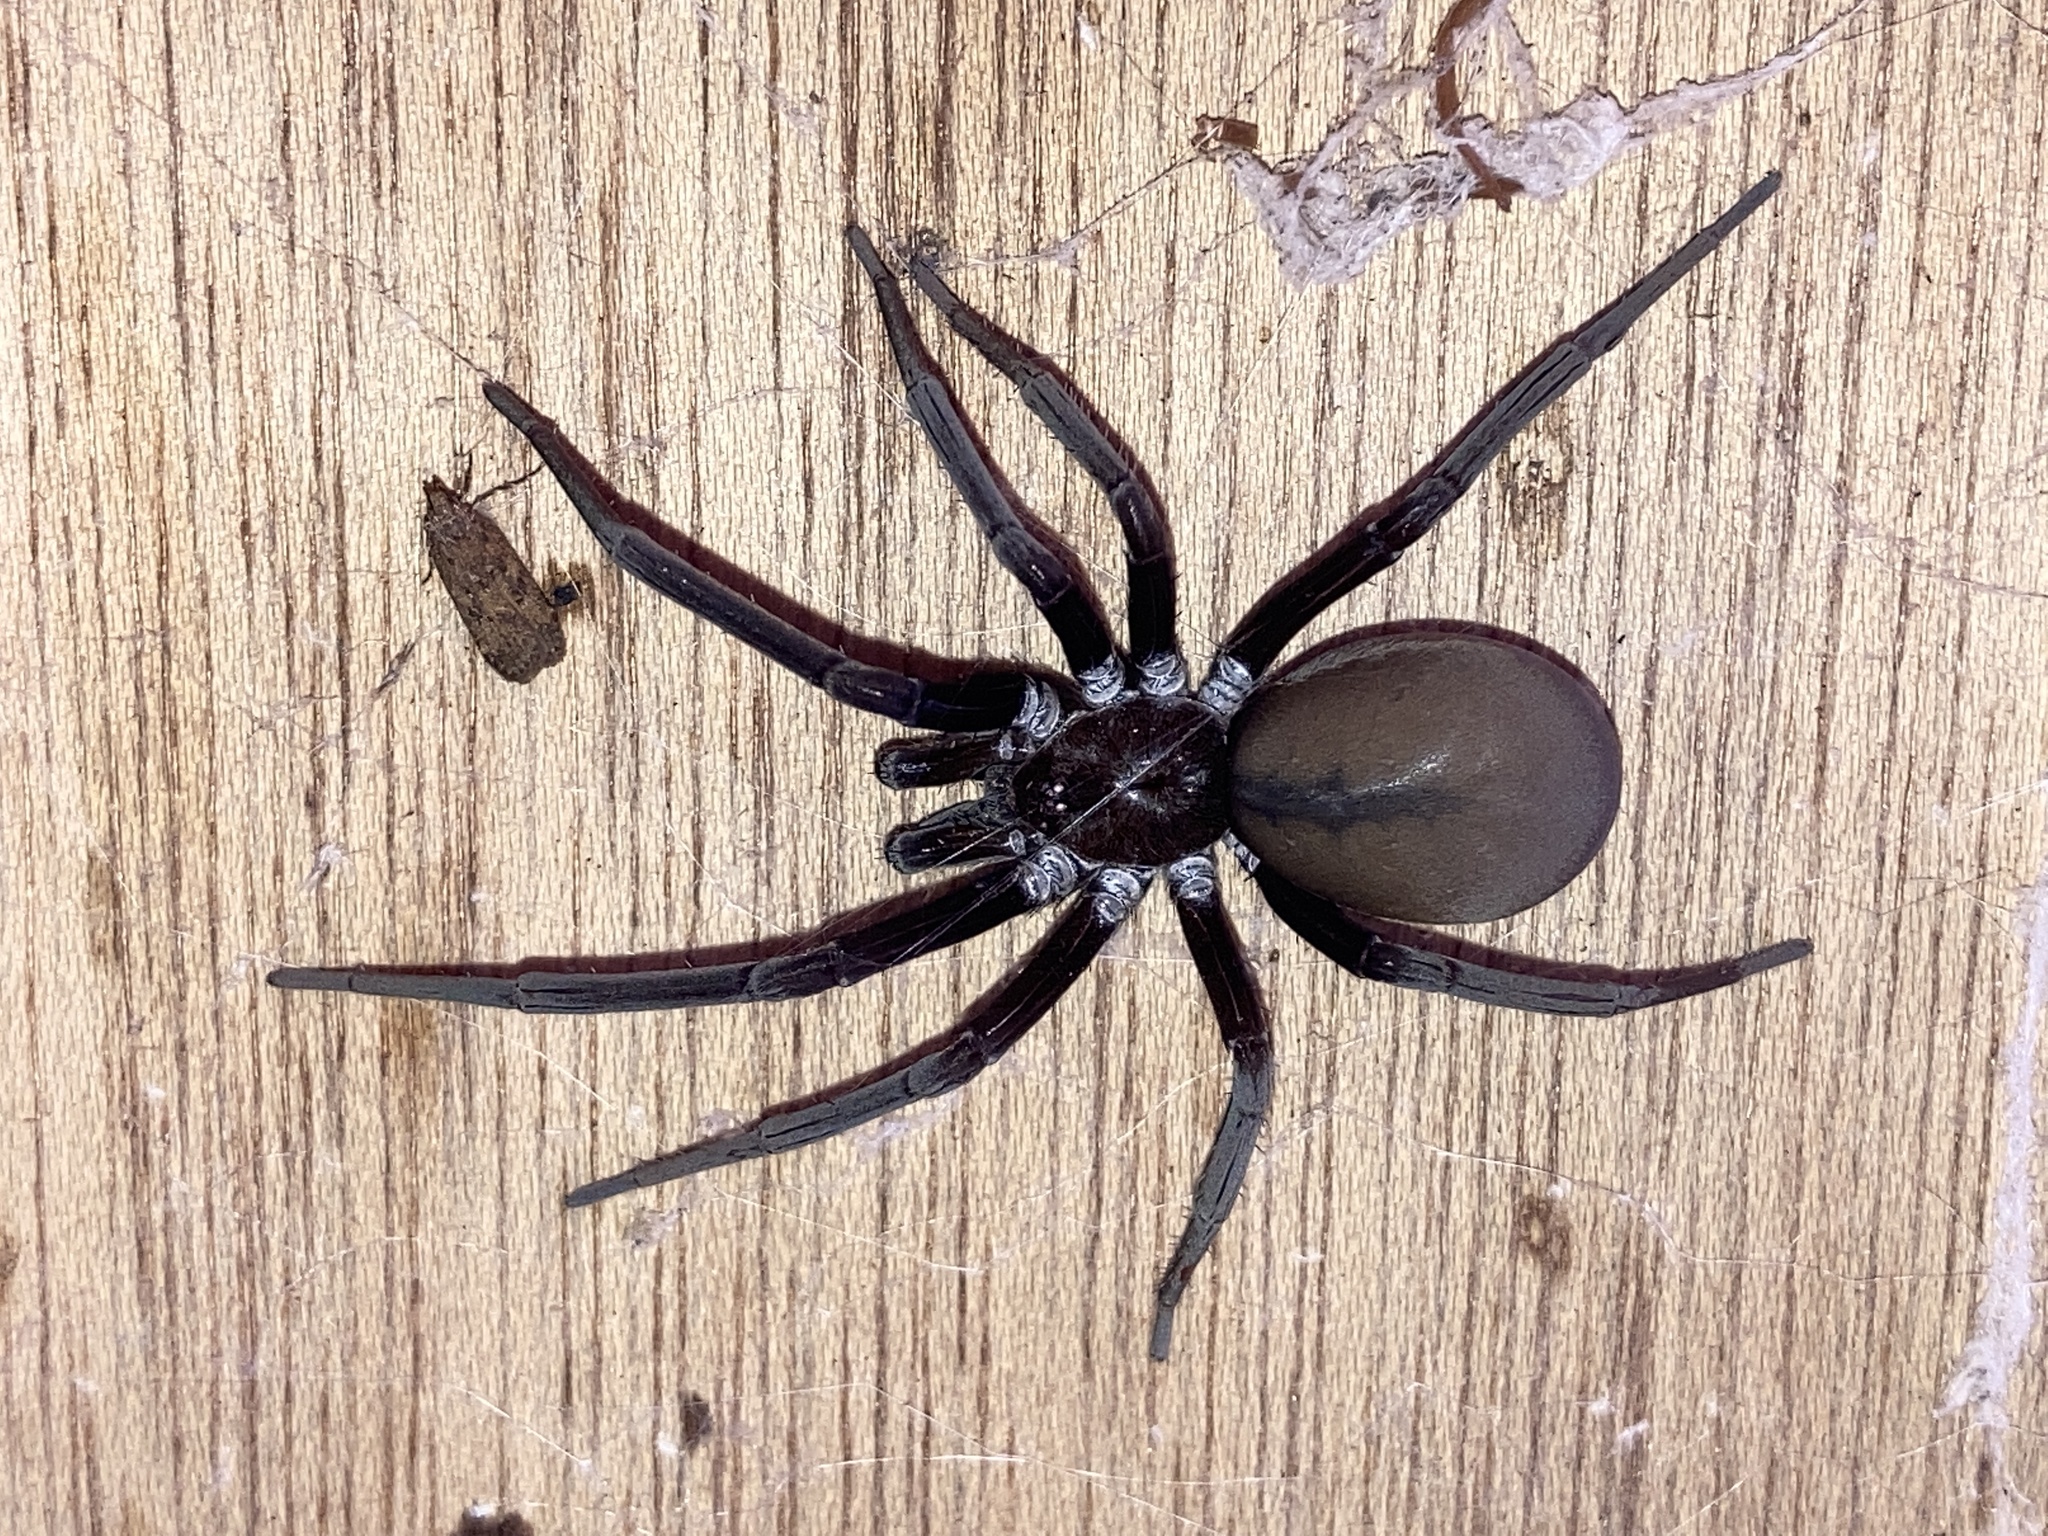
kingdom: Animalia
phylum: Arthropoda
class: Arachnida
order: Araneae
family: Filistatidae
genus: Kukulcania
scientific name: Kukulcania hibernalis
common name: Crevice weaver
